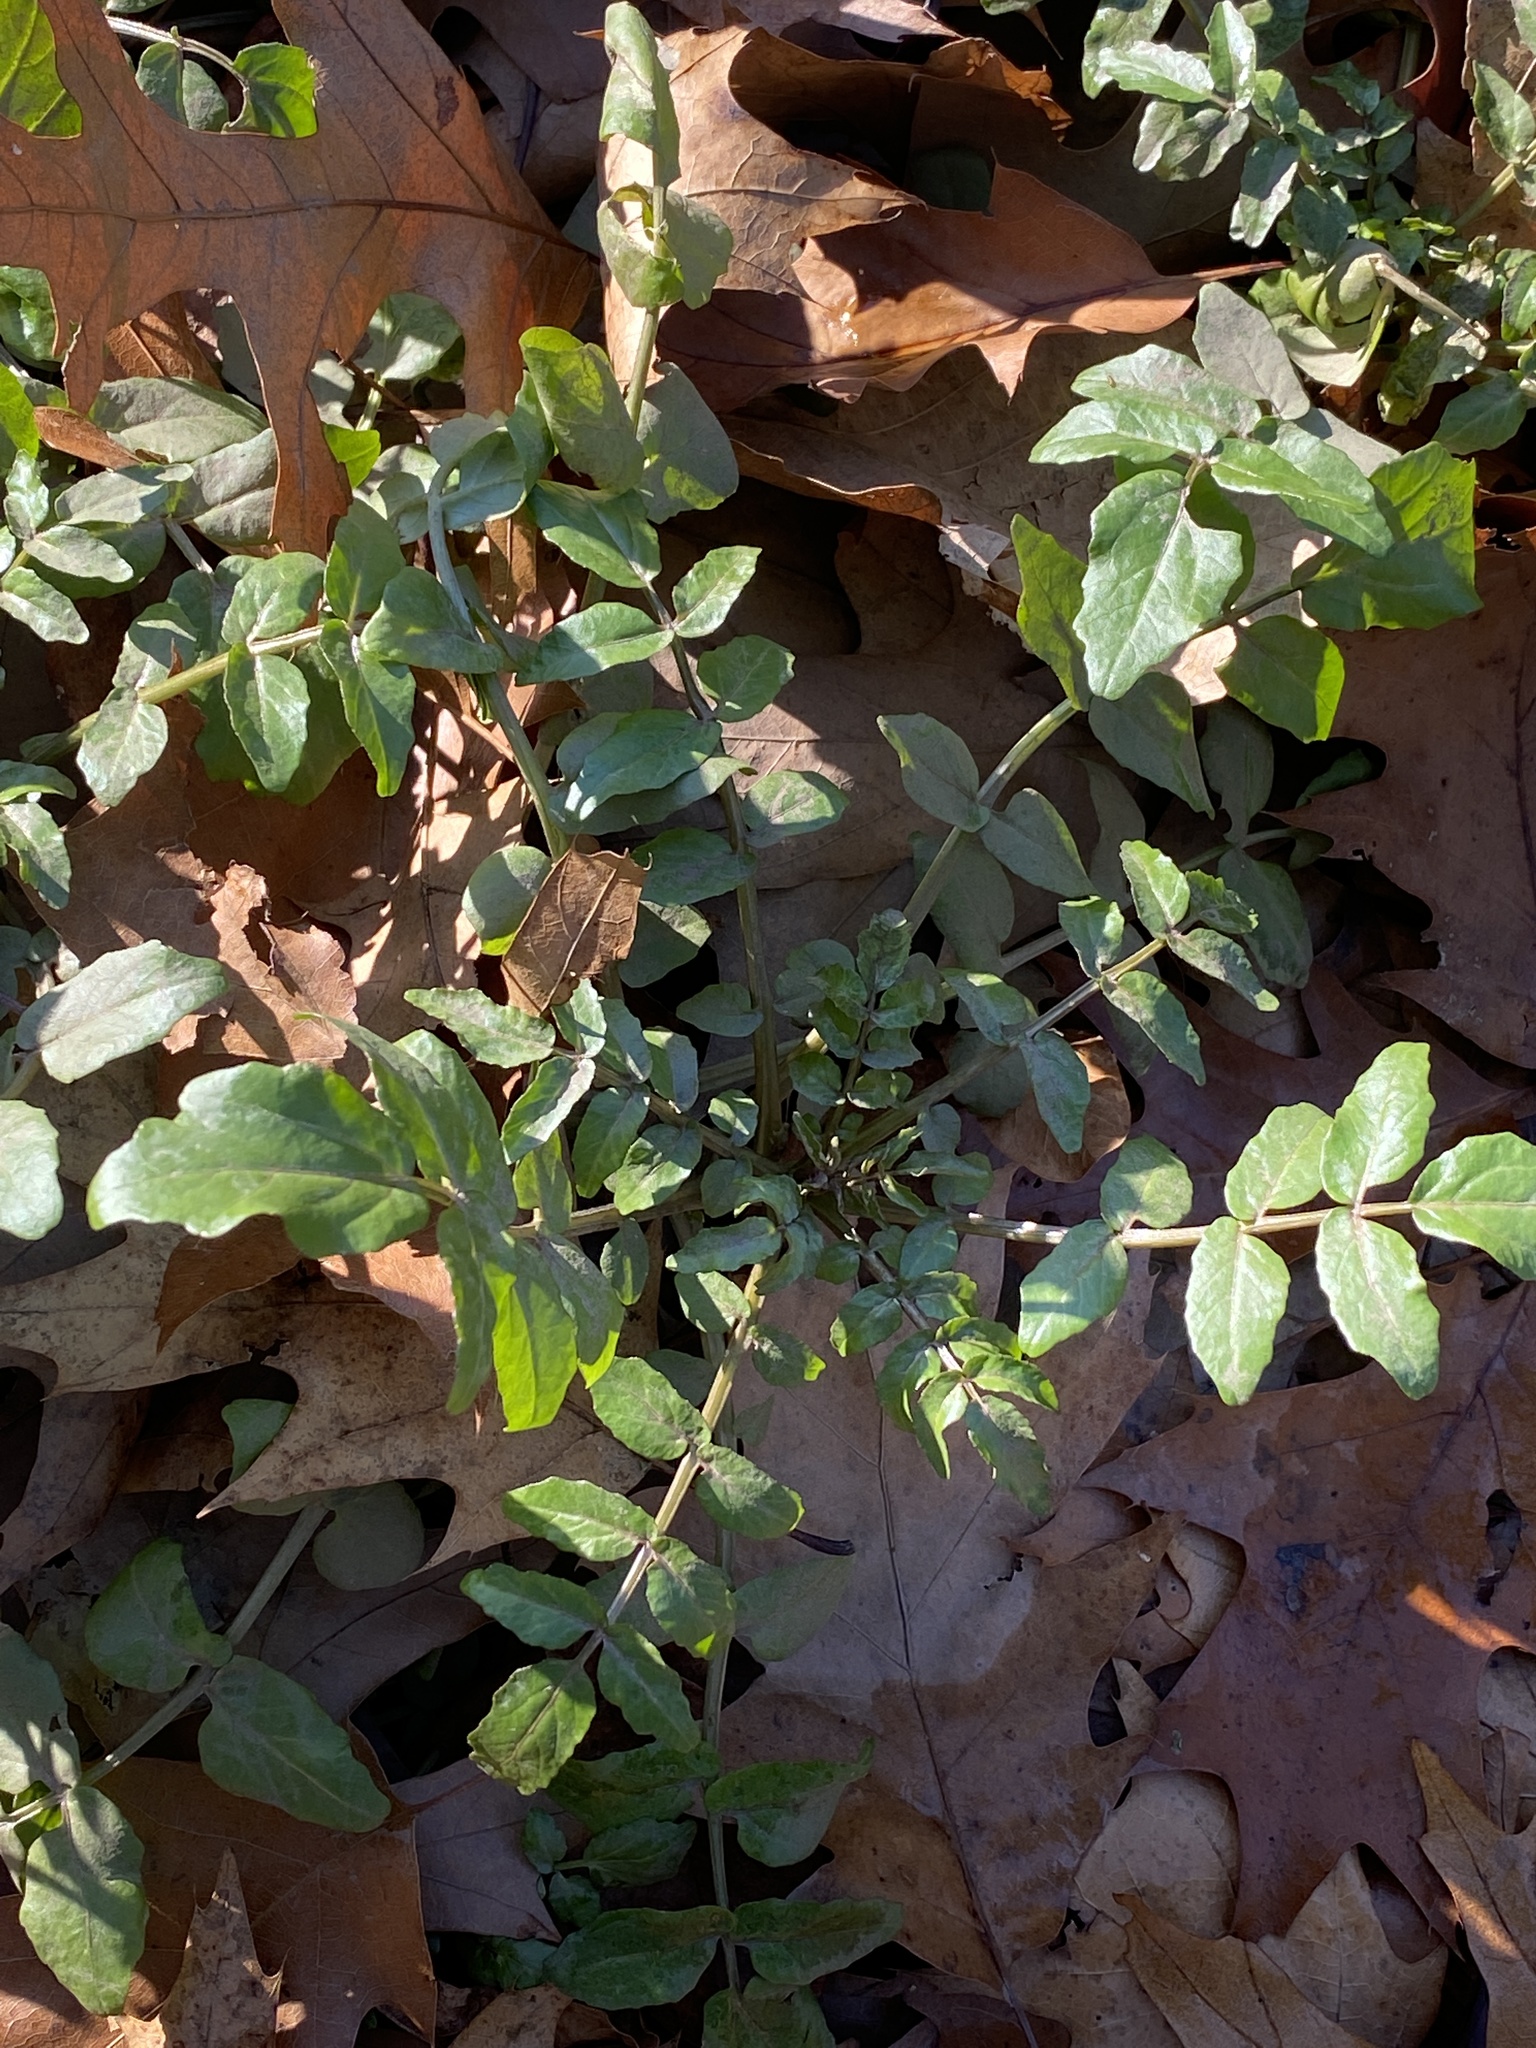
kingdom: Plantae
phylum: Tracheophyta
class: Magnoliopsida
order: Brassicales
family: Brassicaceae
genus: Nasturtium
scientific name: Nasturtium officinale
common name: Watercress
